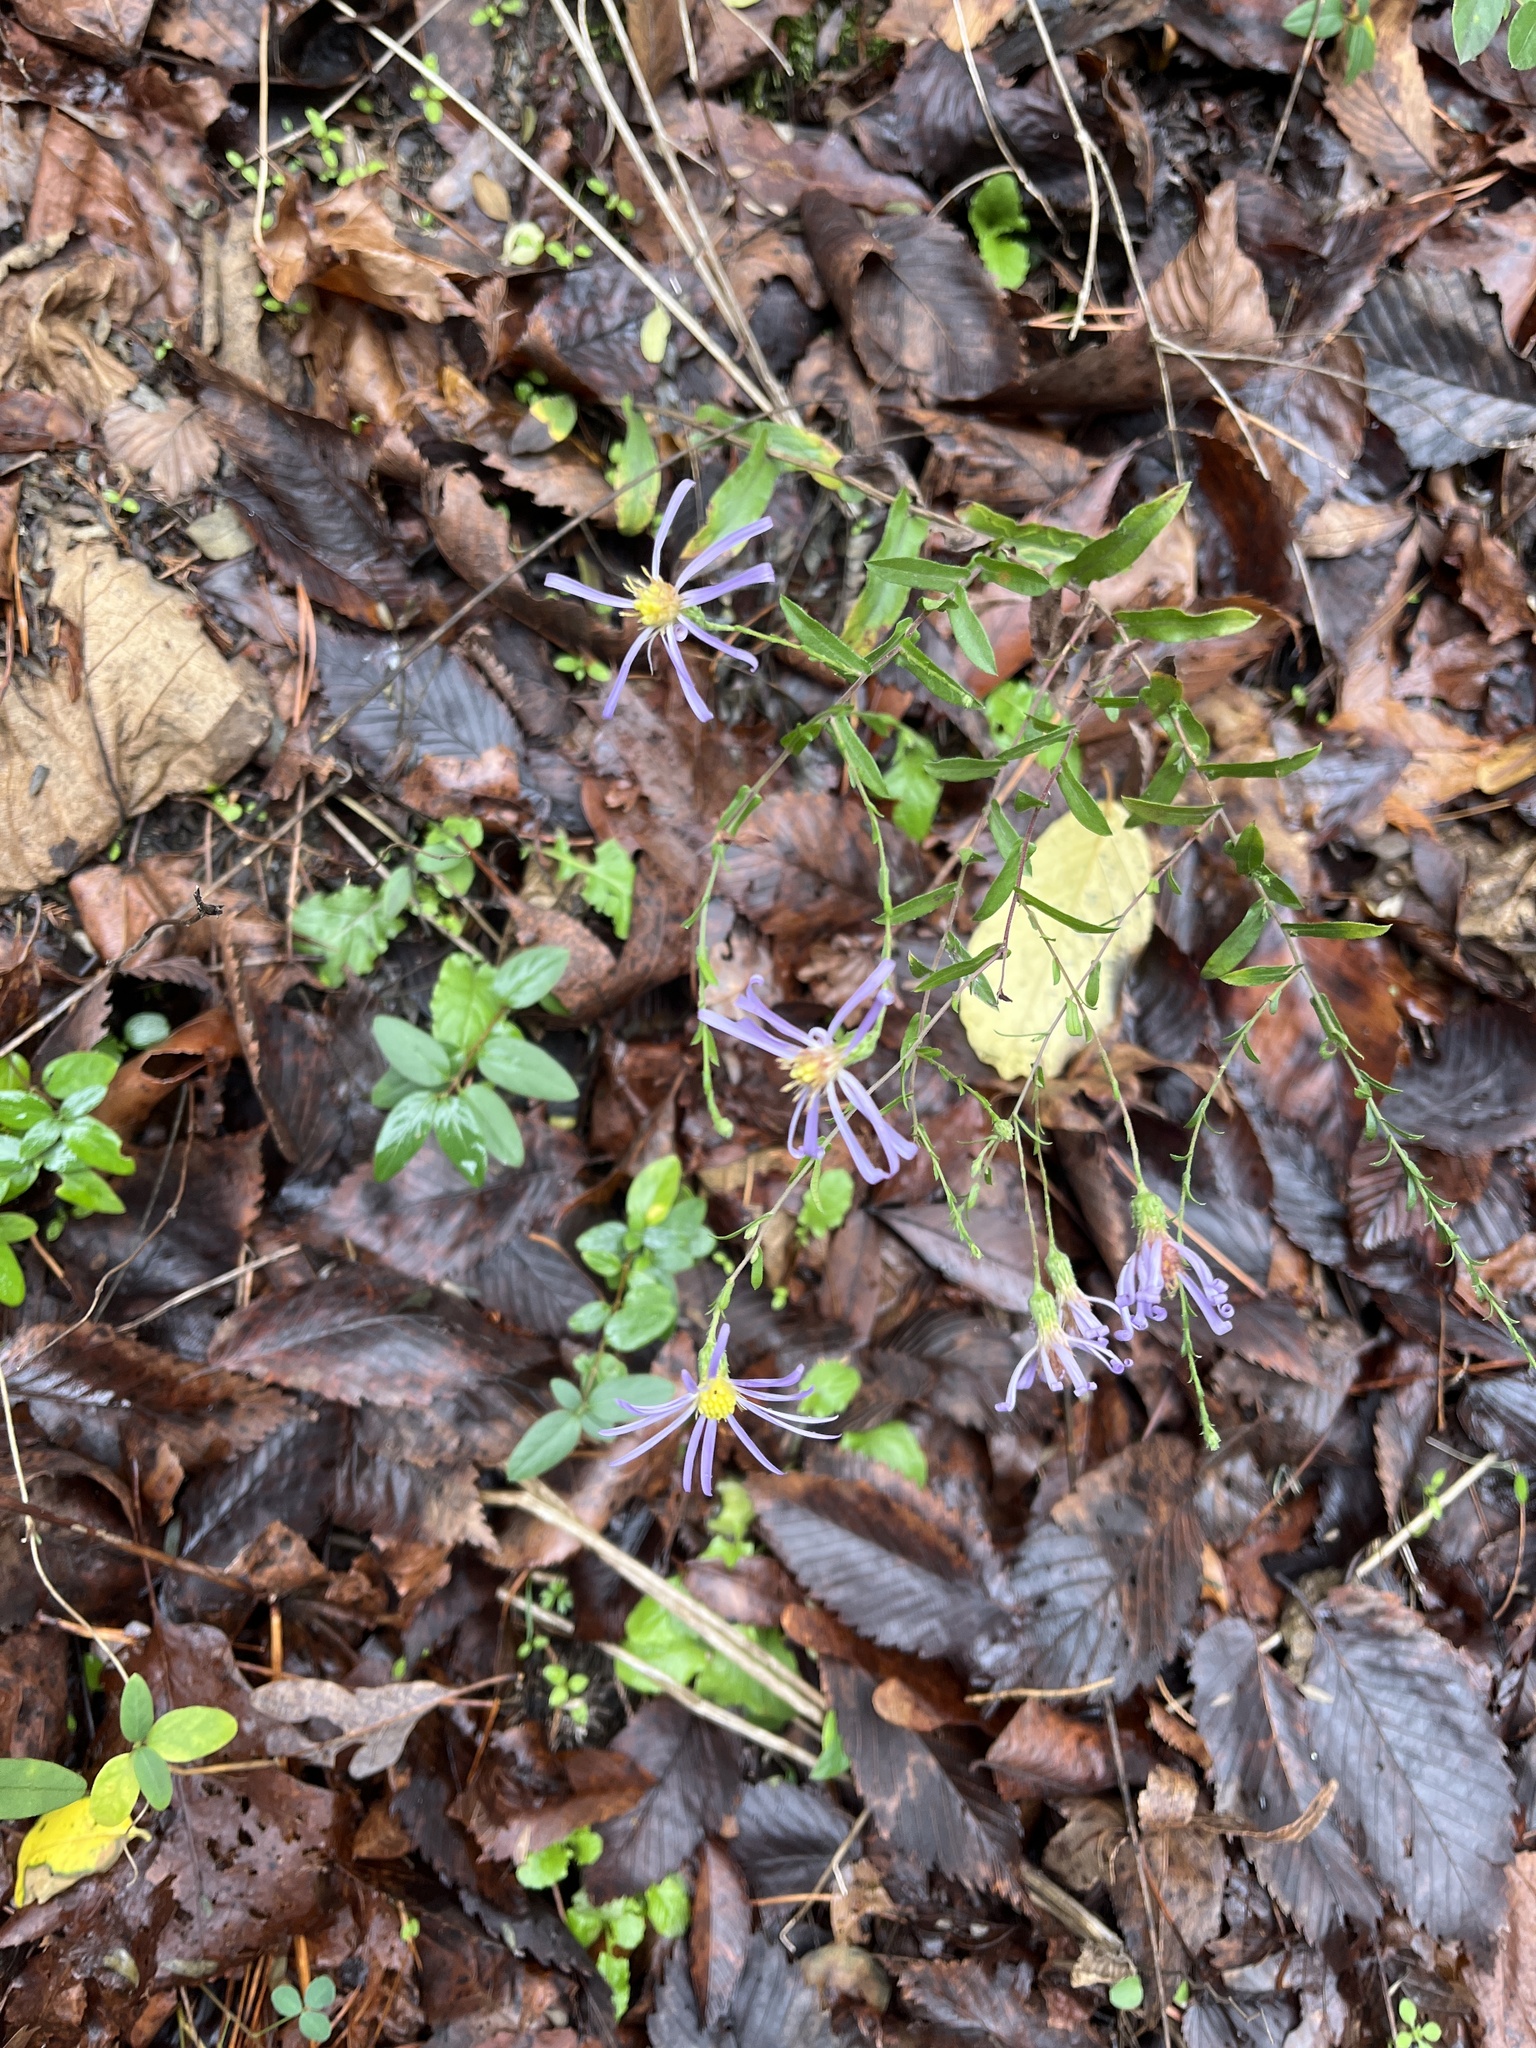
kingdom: Plantae
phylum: Tracheophyta
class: Magnoliopsida
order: Asterales
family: Asteraceae
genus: Symphyotrichum
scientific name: Symphyotrichum patens
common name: Late purple aster
